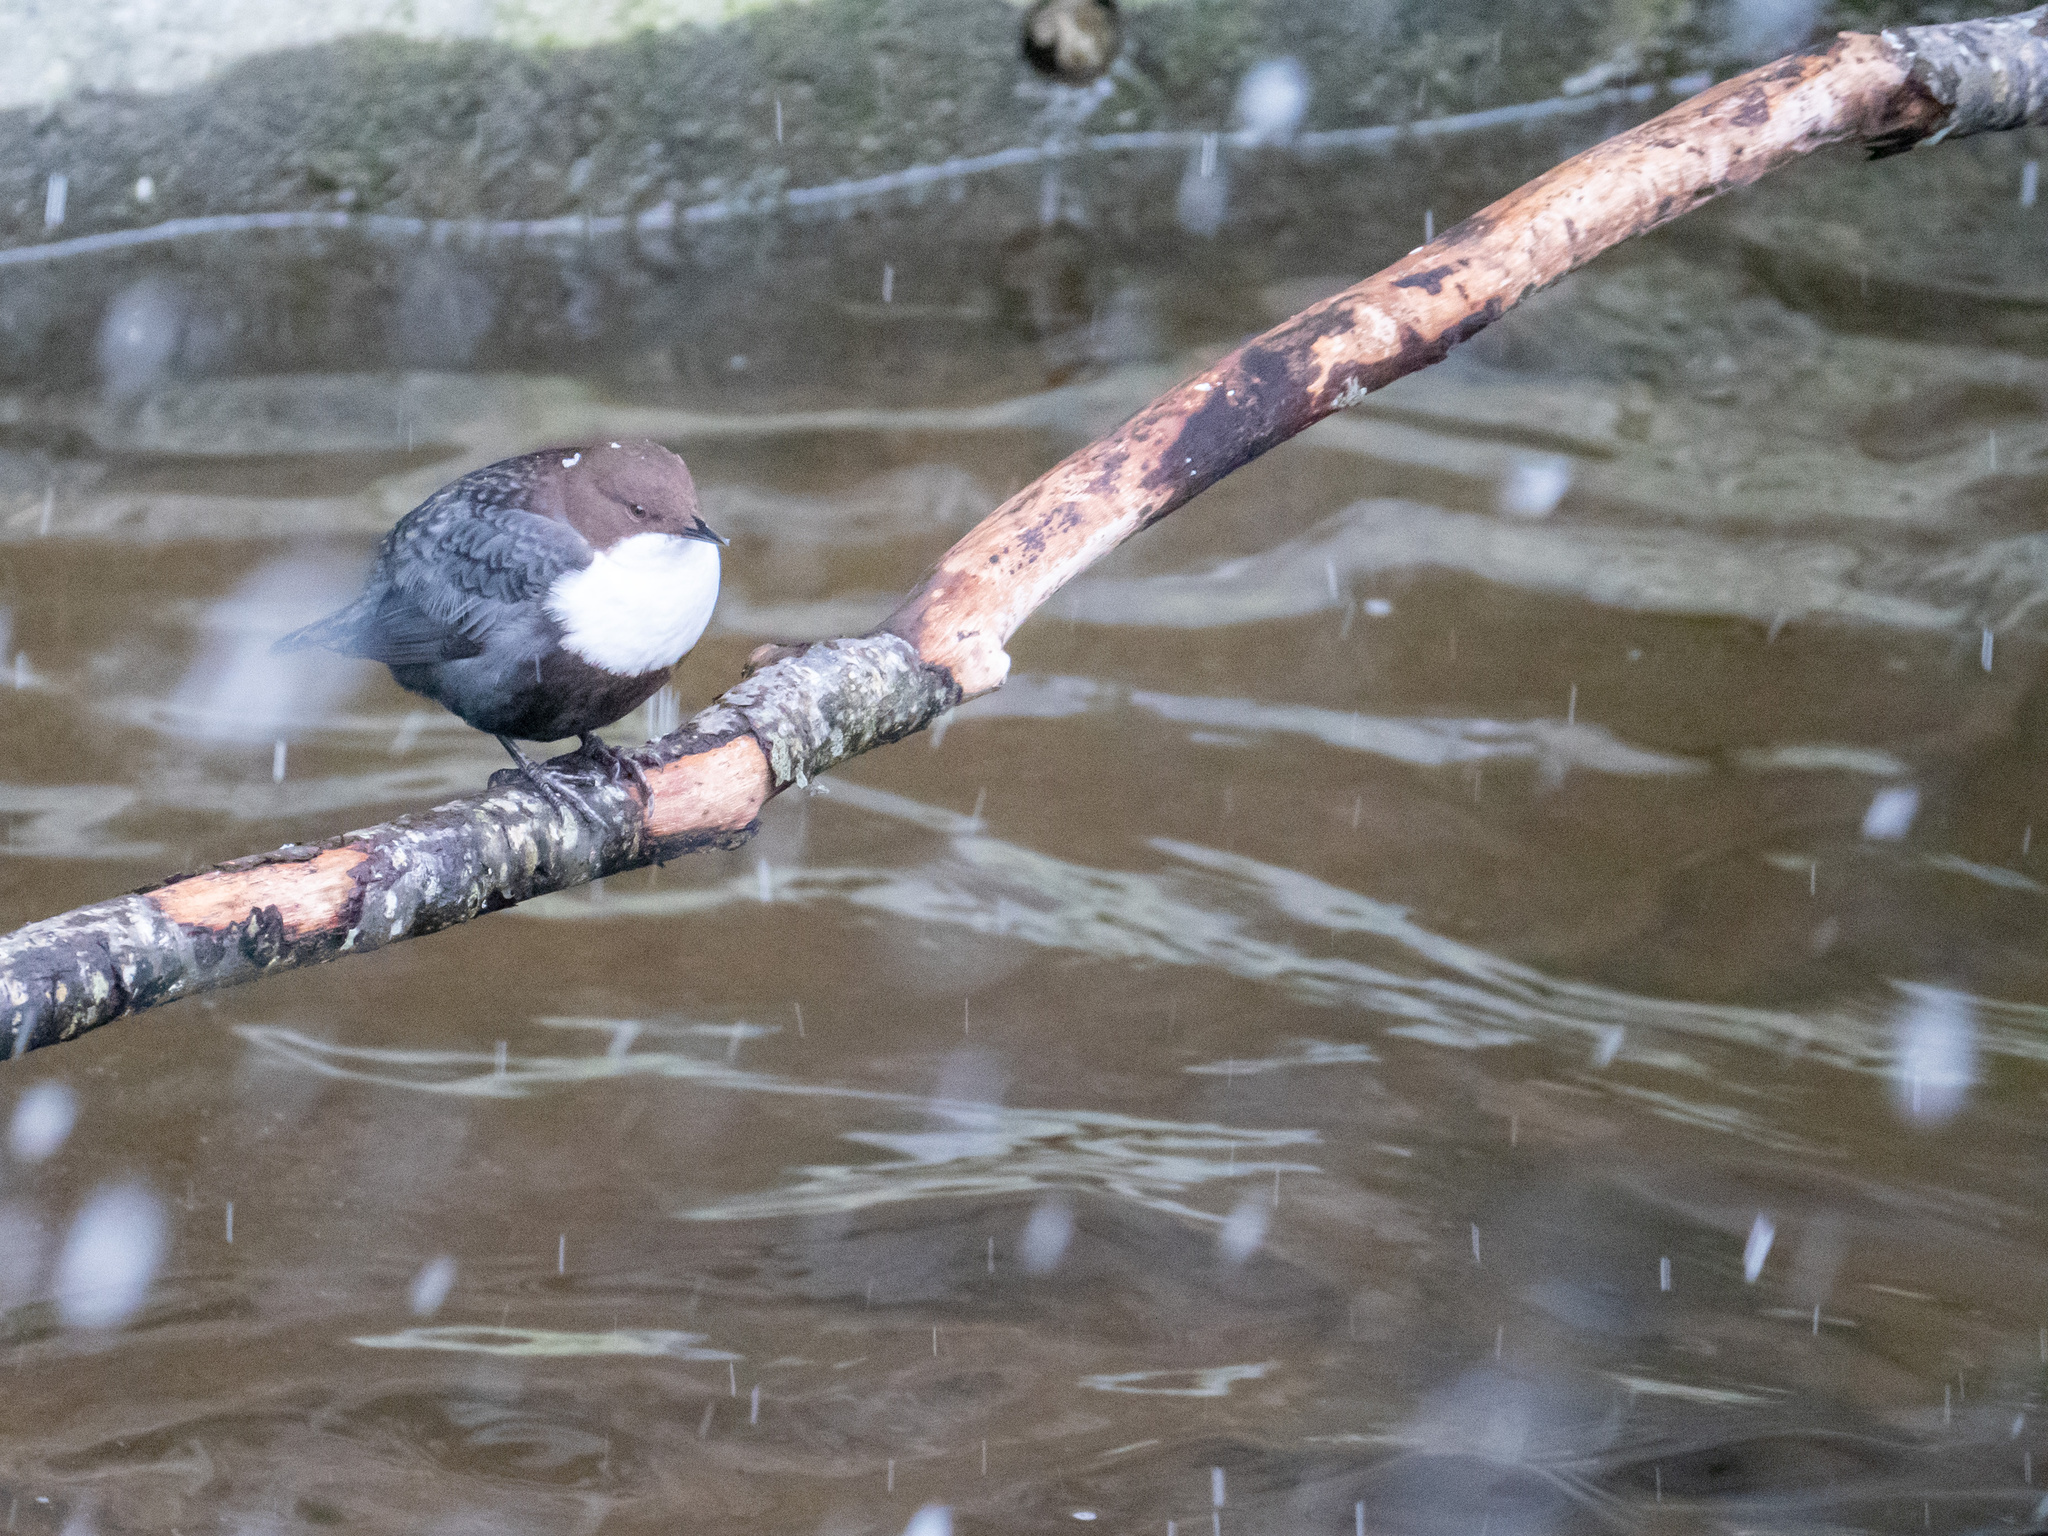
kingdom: Animalia
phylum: Chordata
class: Aves
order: Passeriformes
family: Cinclidae
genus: Cinclus
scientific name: Cinclus cinclus
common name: White-throated dipper
